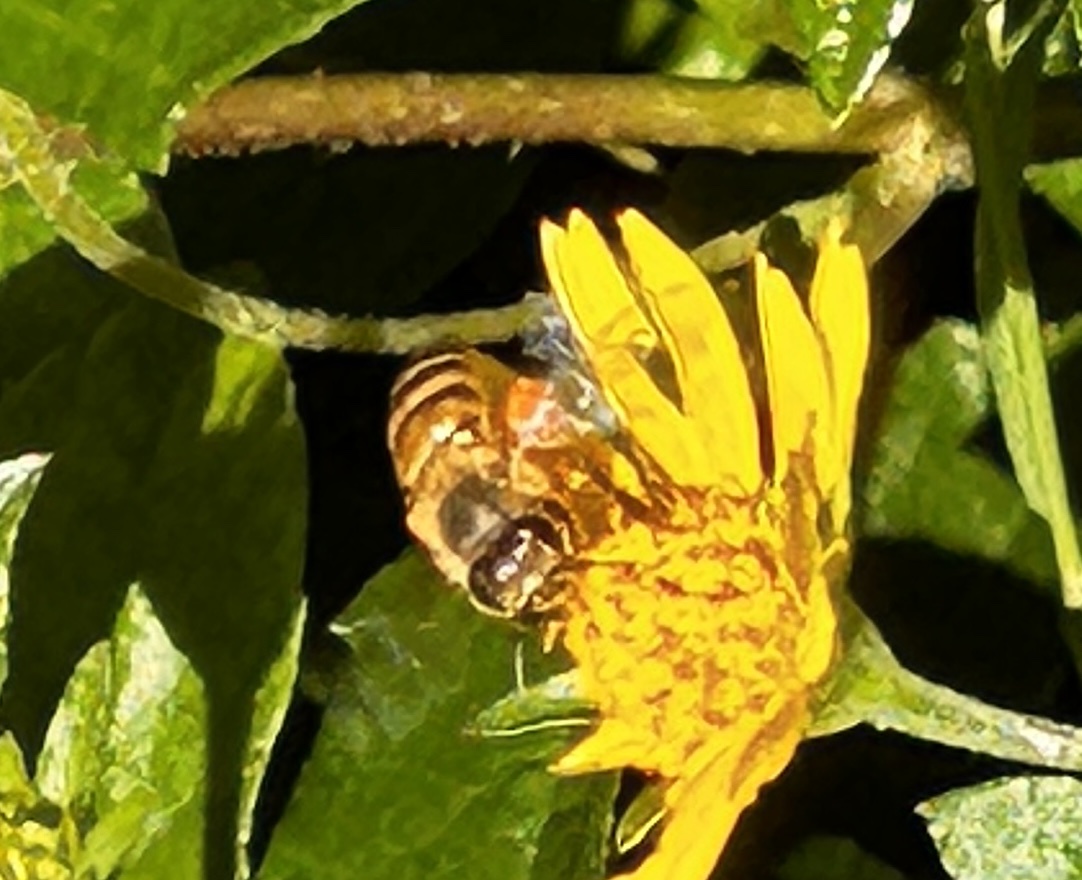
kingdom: Animalia
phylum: Arthropoda
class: Insecta
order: Hymenoptera
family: Apidae
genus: Apis
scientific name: Apis cerana
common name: Honey bee
